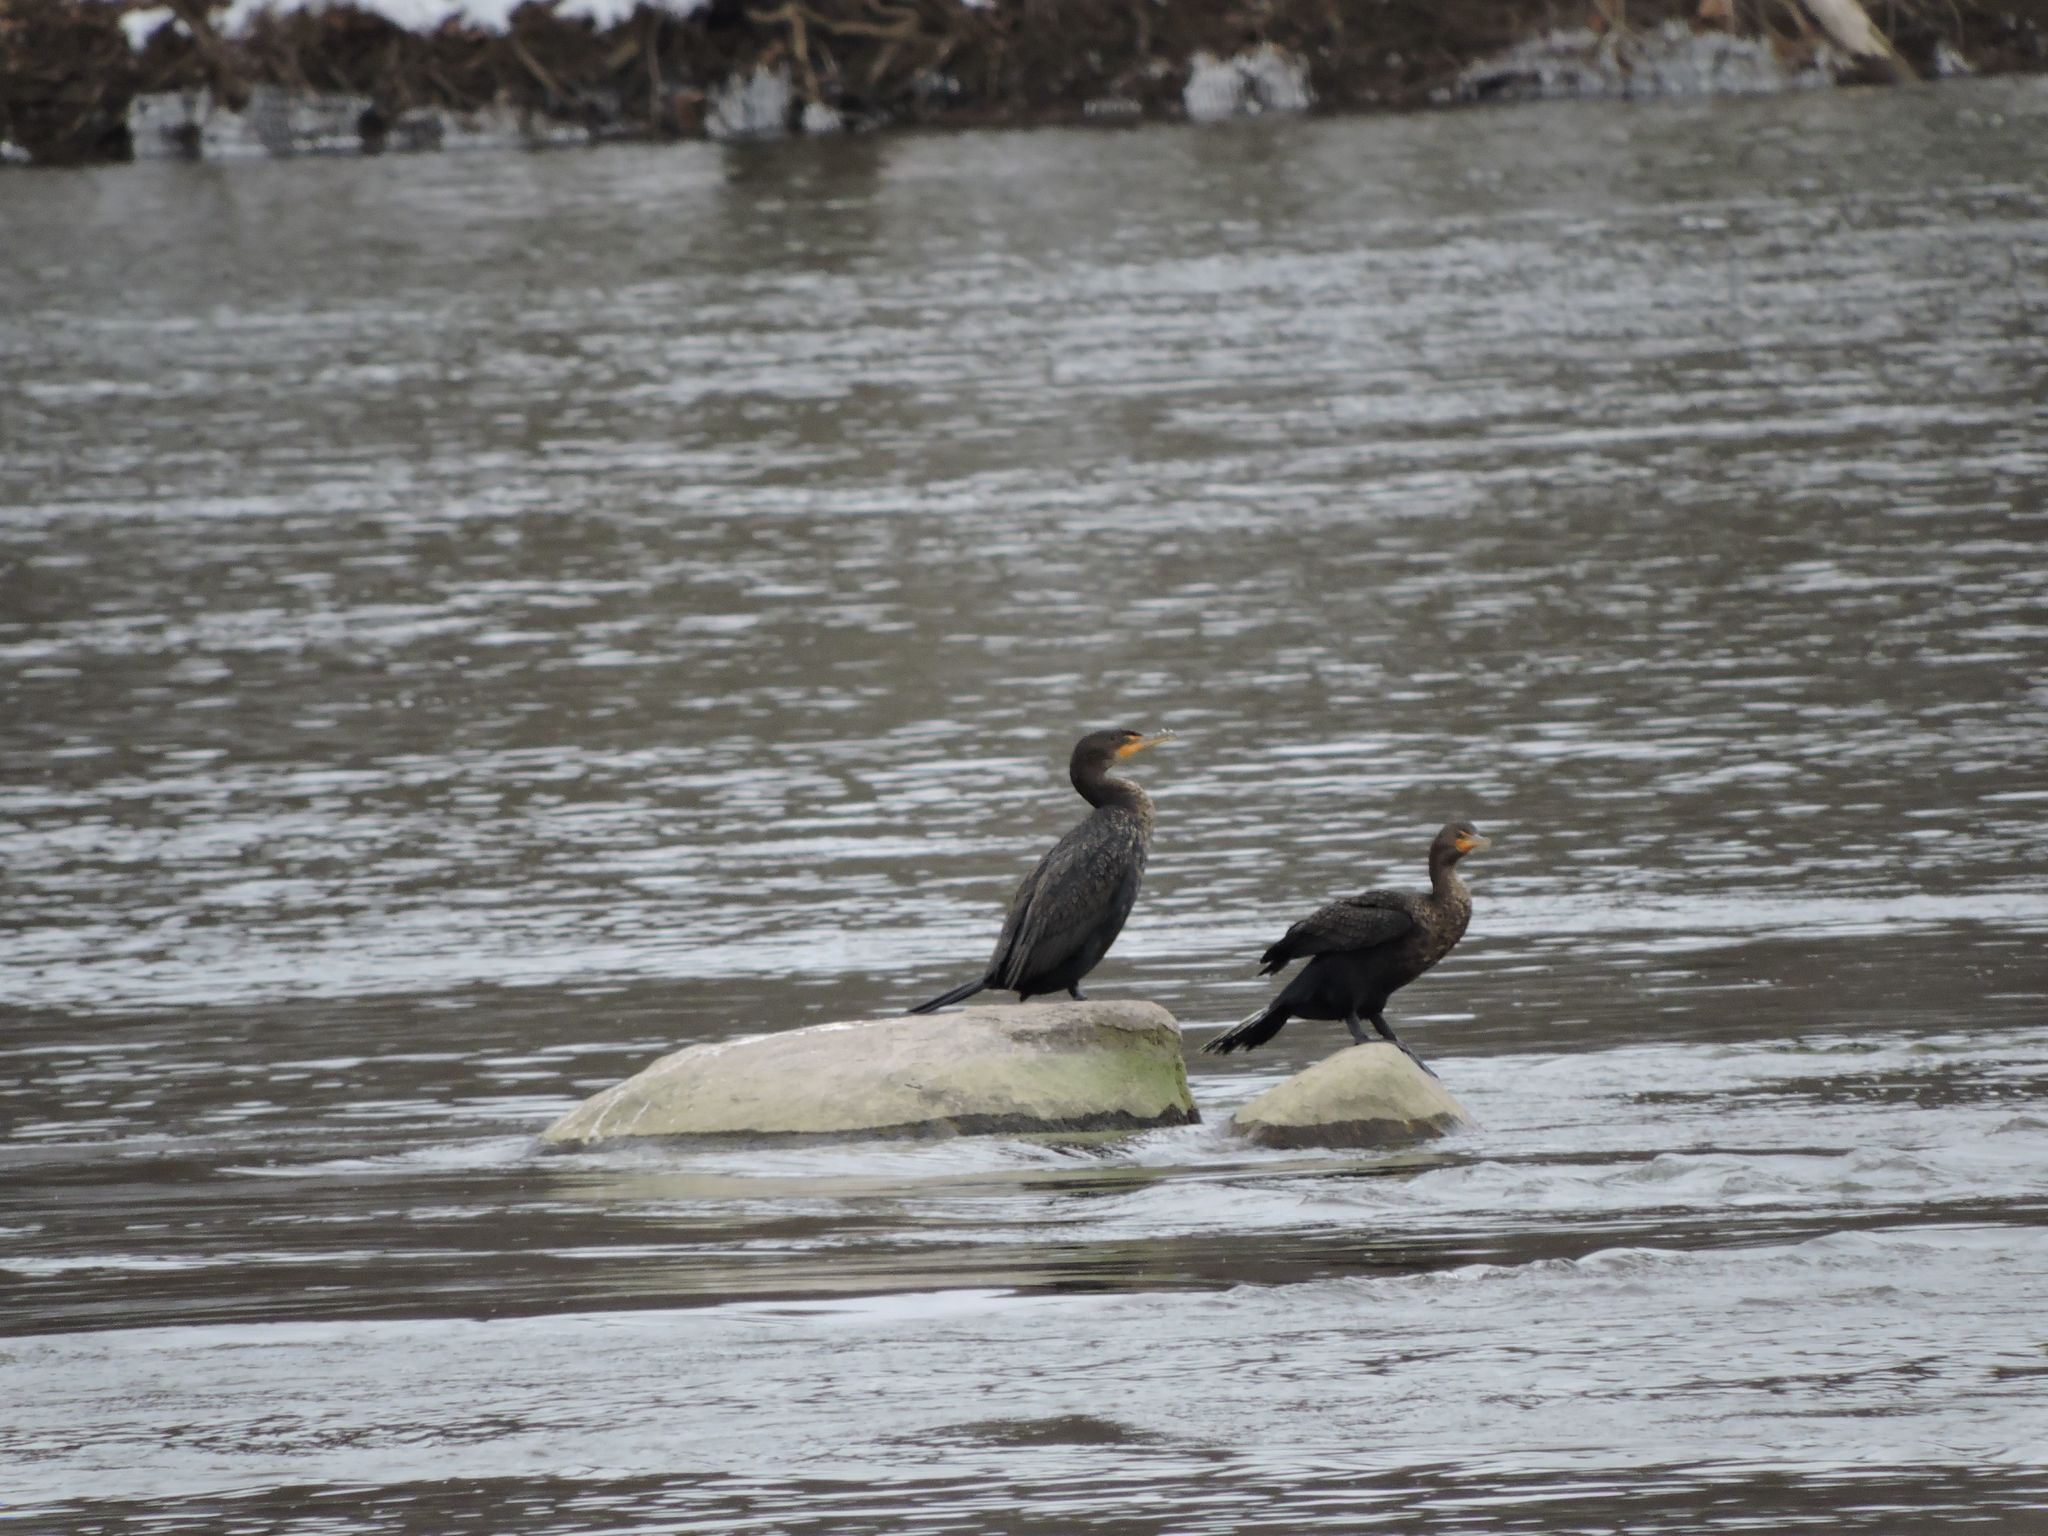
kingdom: Animalia
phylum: Chordata
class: Aves
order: Suliformes
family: Phalacrocoracidae
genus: Phalacrocorax
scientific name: Phalacrocorax auritus
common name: Double-crested cormorant
